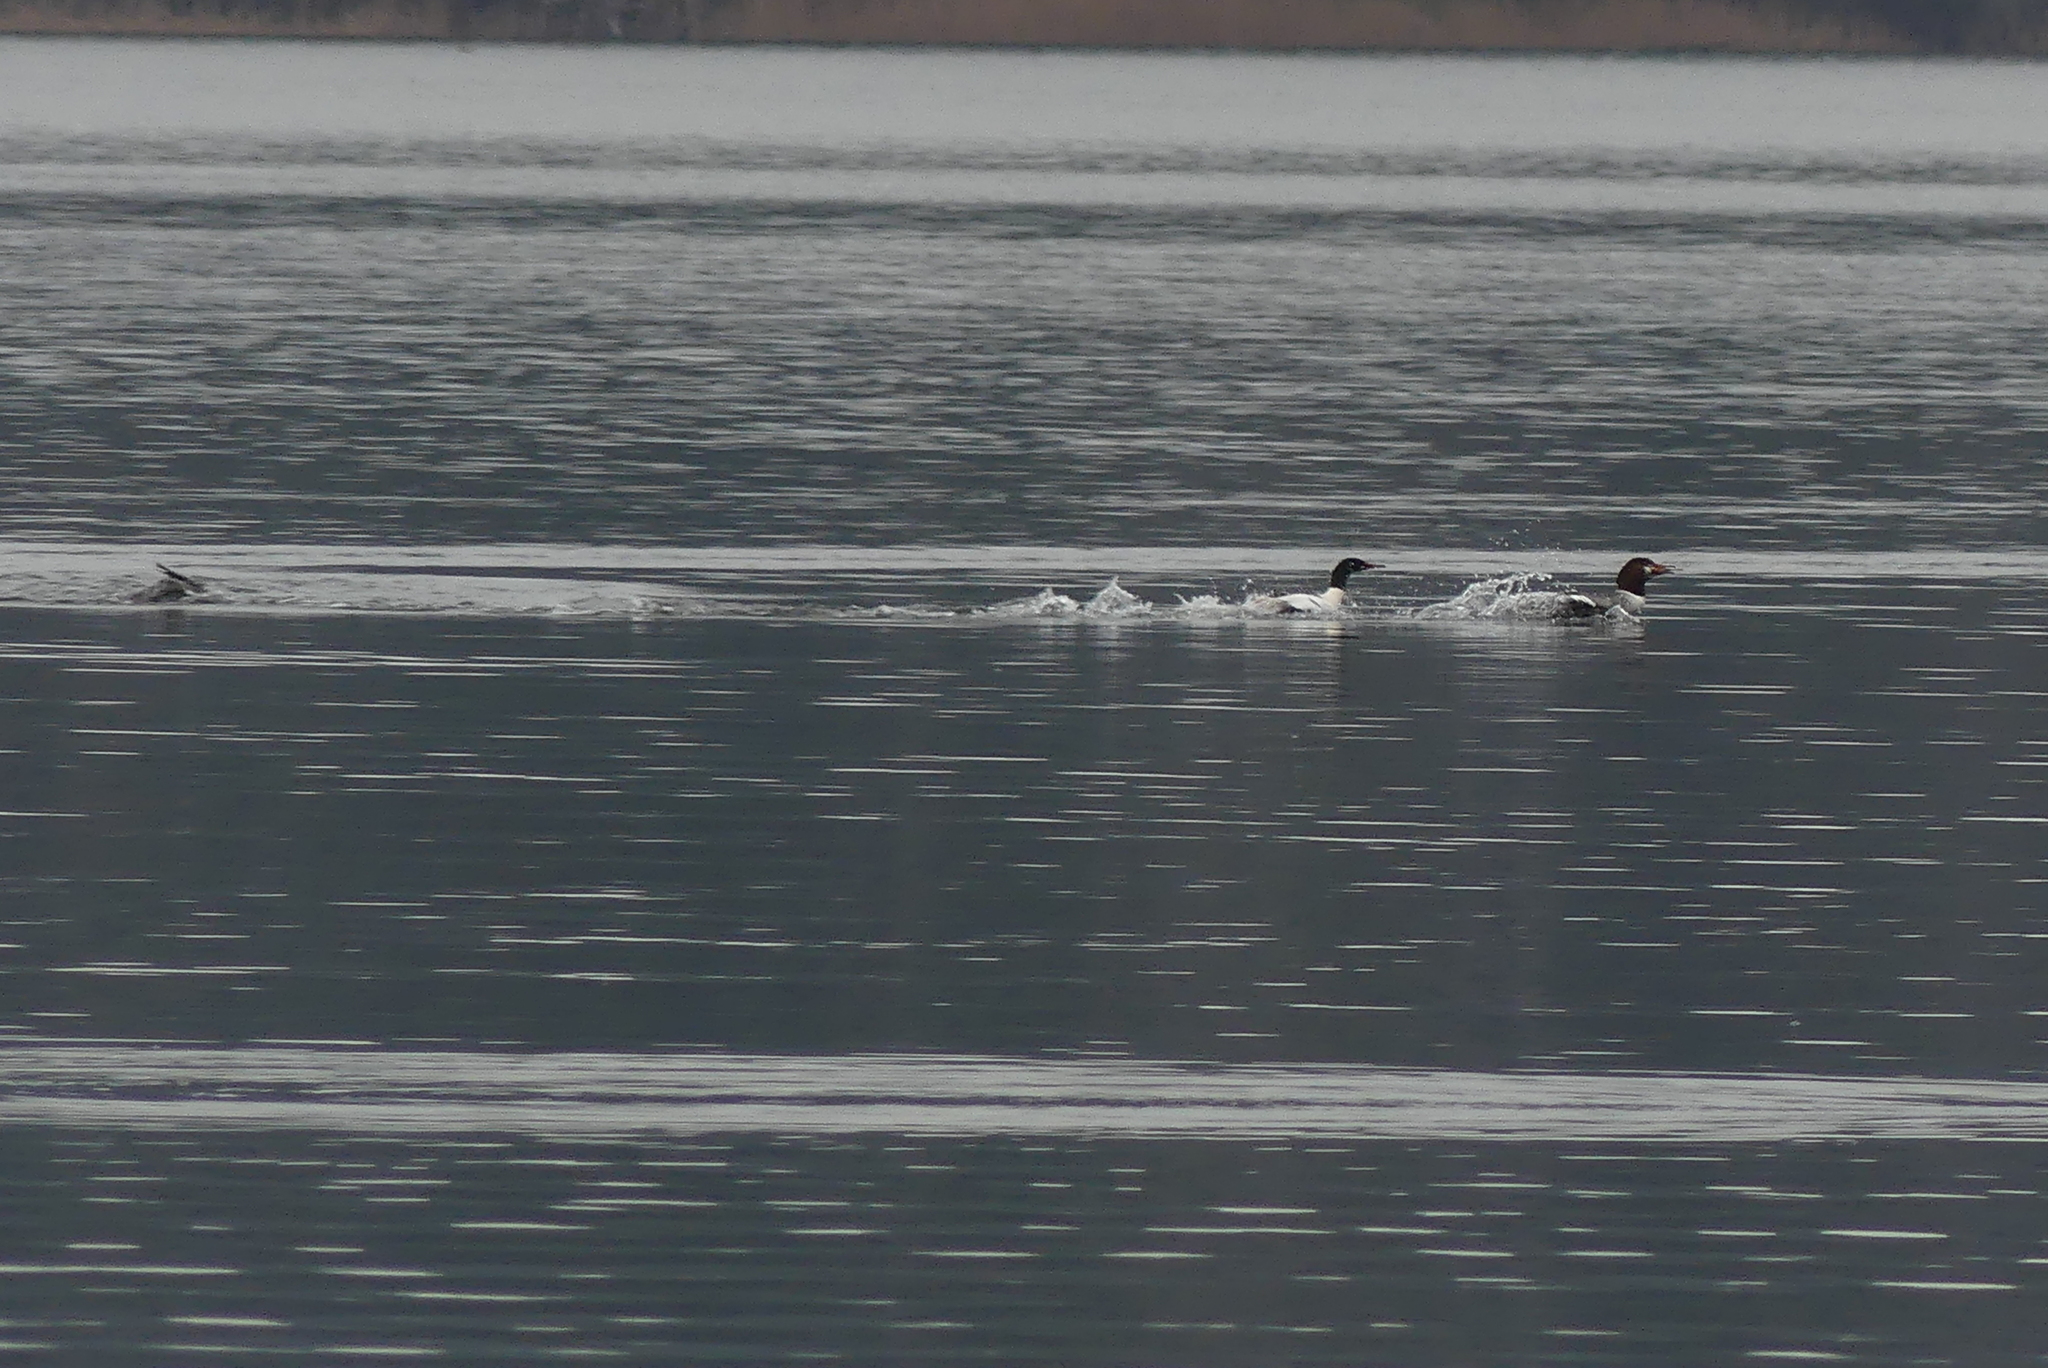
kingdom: Animalia
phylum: Chordata
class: Aves
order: Anseriformes
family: Anatidae
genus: Mergus
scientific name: Mergus merganser
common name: Common merganser
